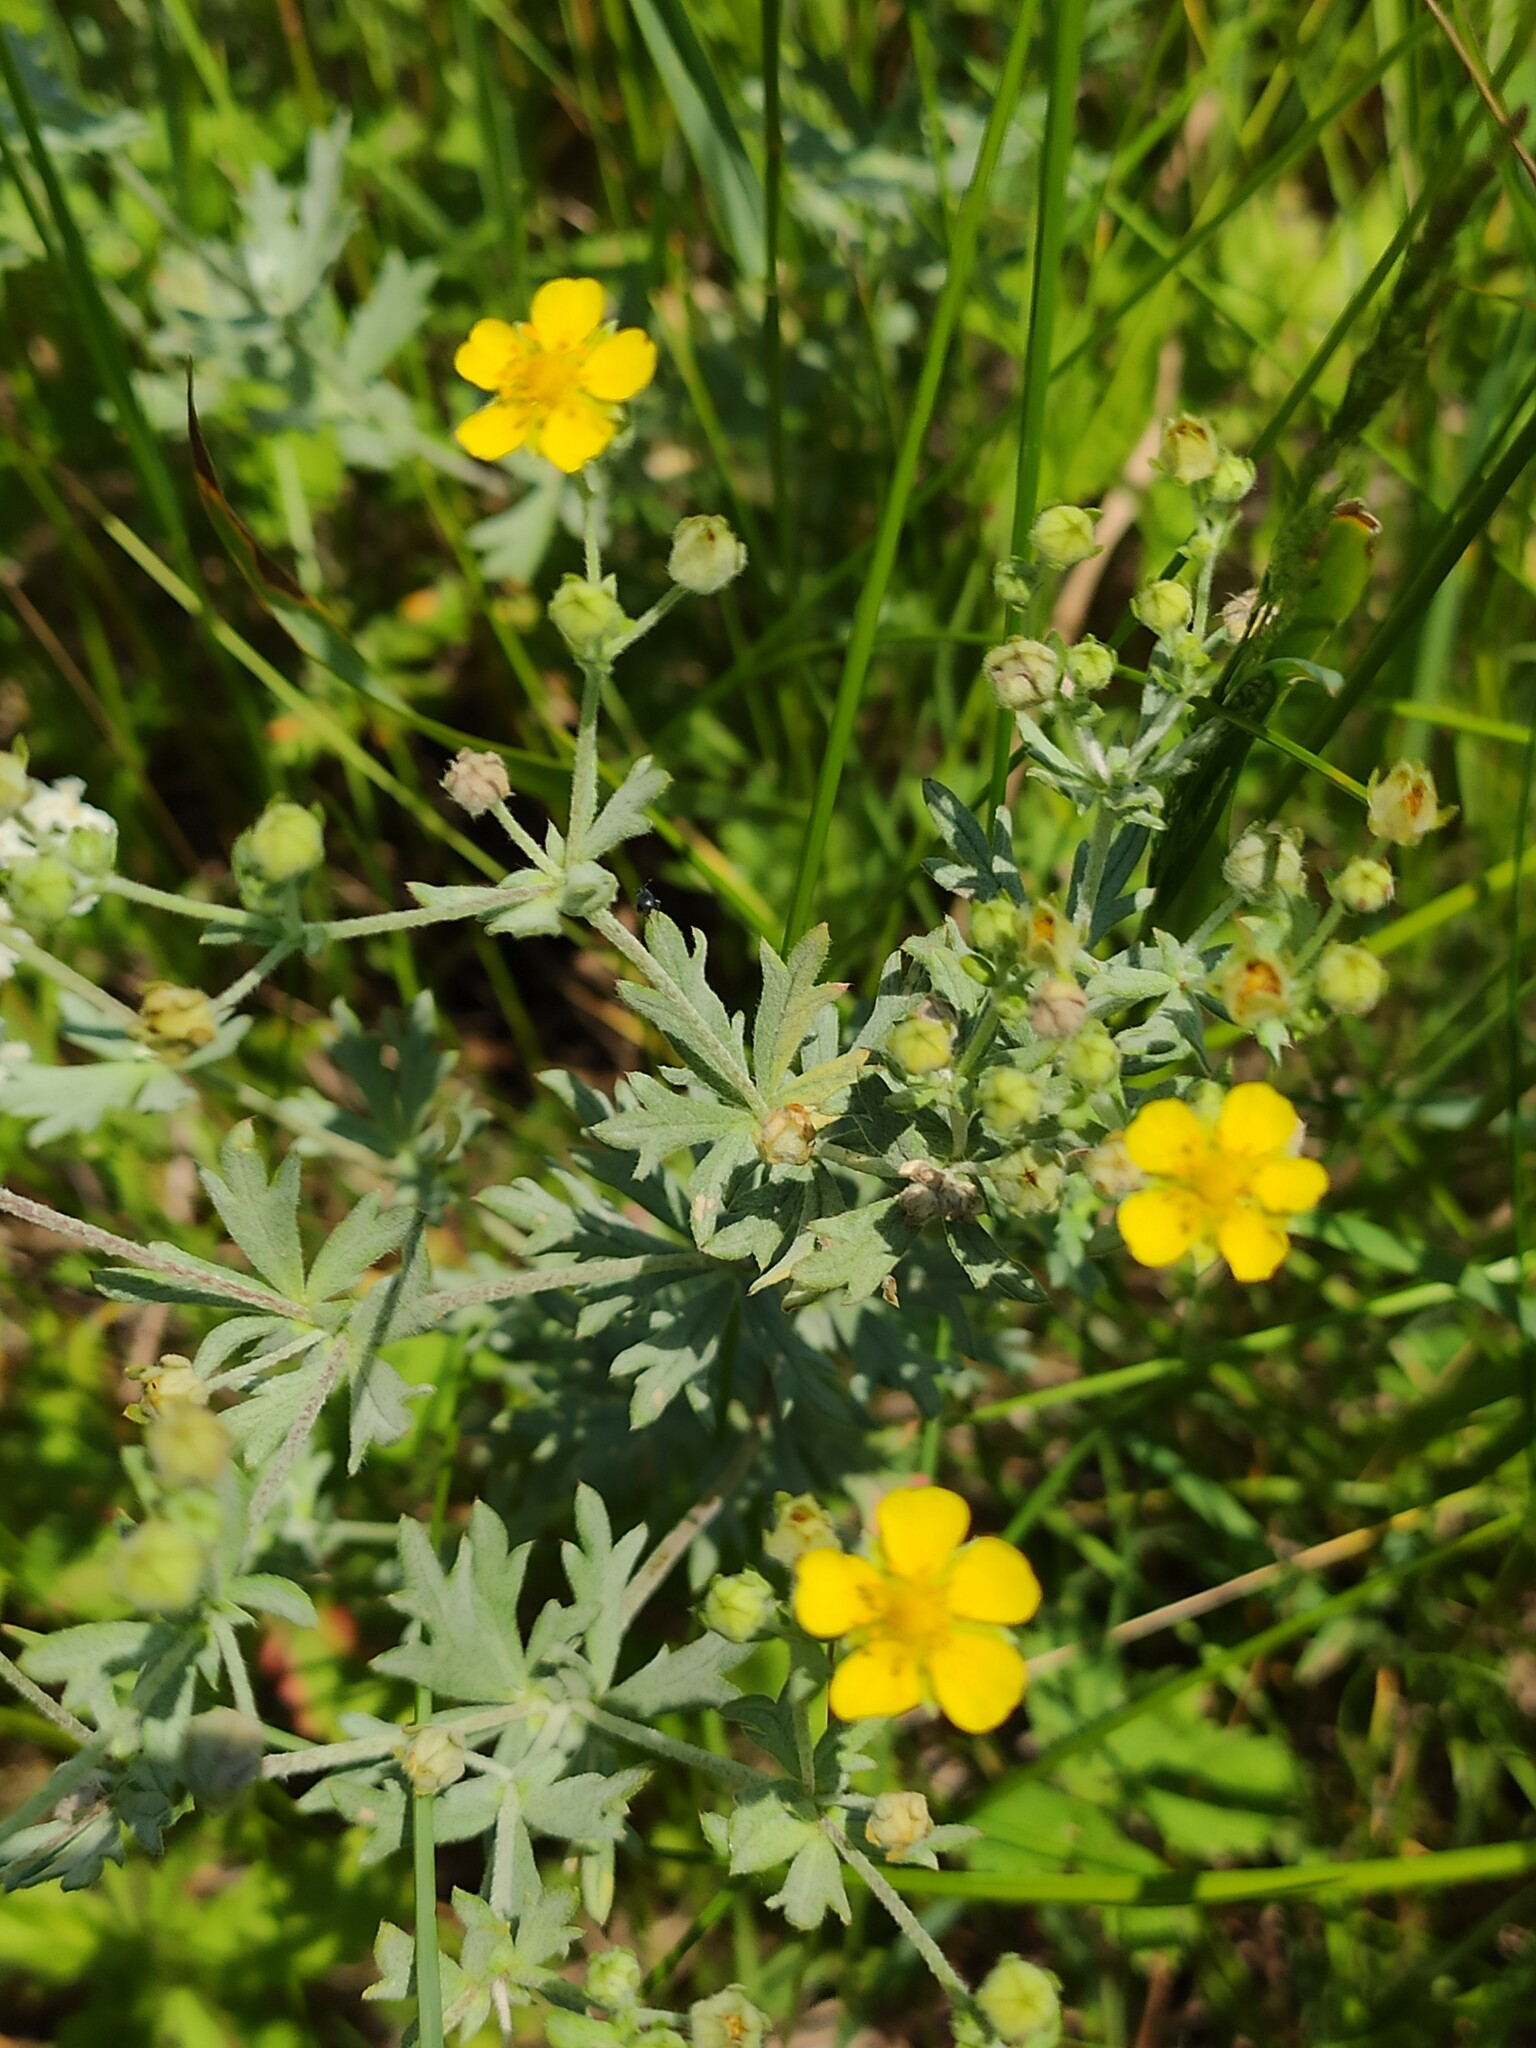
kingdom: Plantae
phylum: Tracheophyta
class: Magnoliopsida
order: Rosales
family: Rosaceae
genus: Potentilla
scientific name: Potentilla argentea
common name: Hoary cinquefoil
